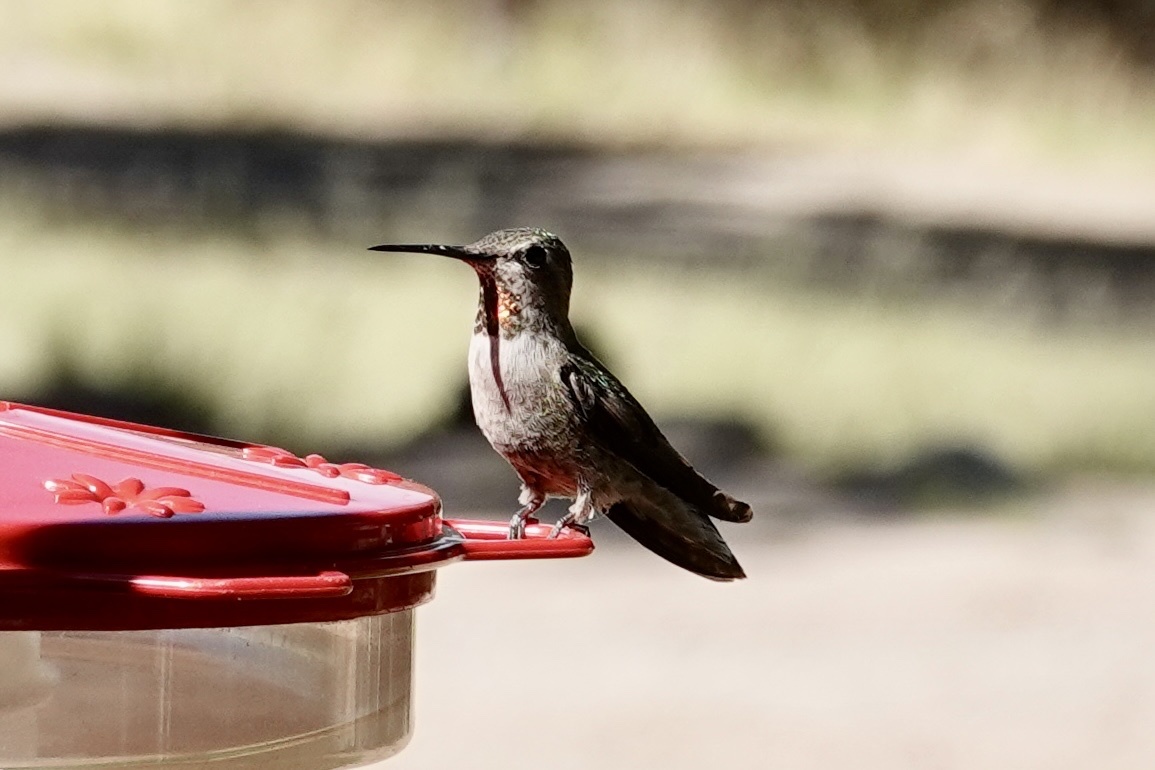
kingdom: Animalia
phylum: Chordata
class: Aves
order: Apodiformes
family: Trochilidae
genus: Calypte
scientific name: Calypte anna
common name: Anna's hummingbird
